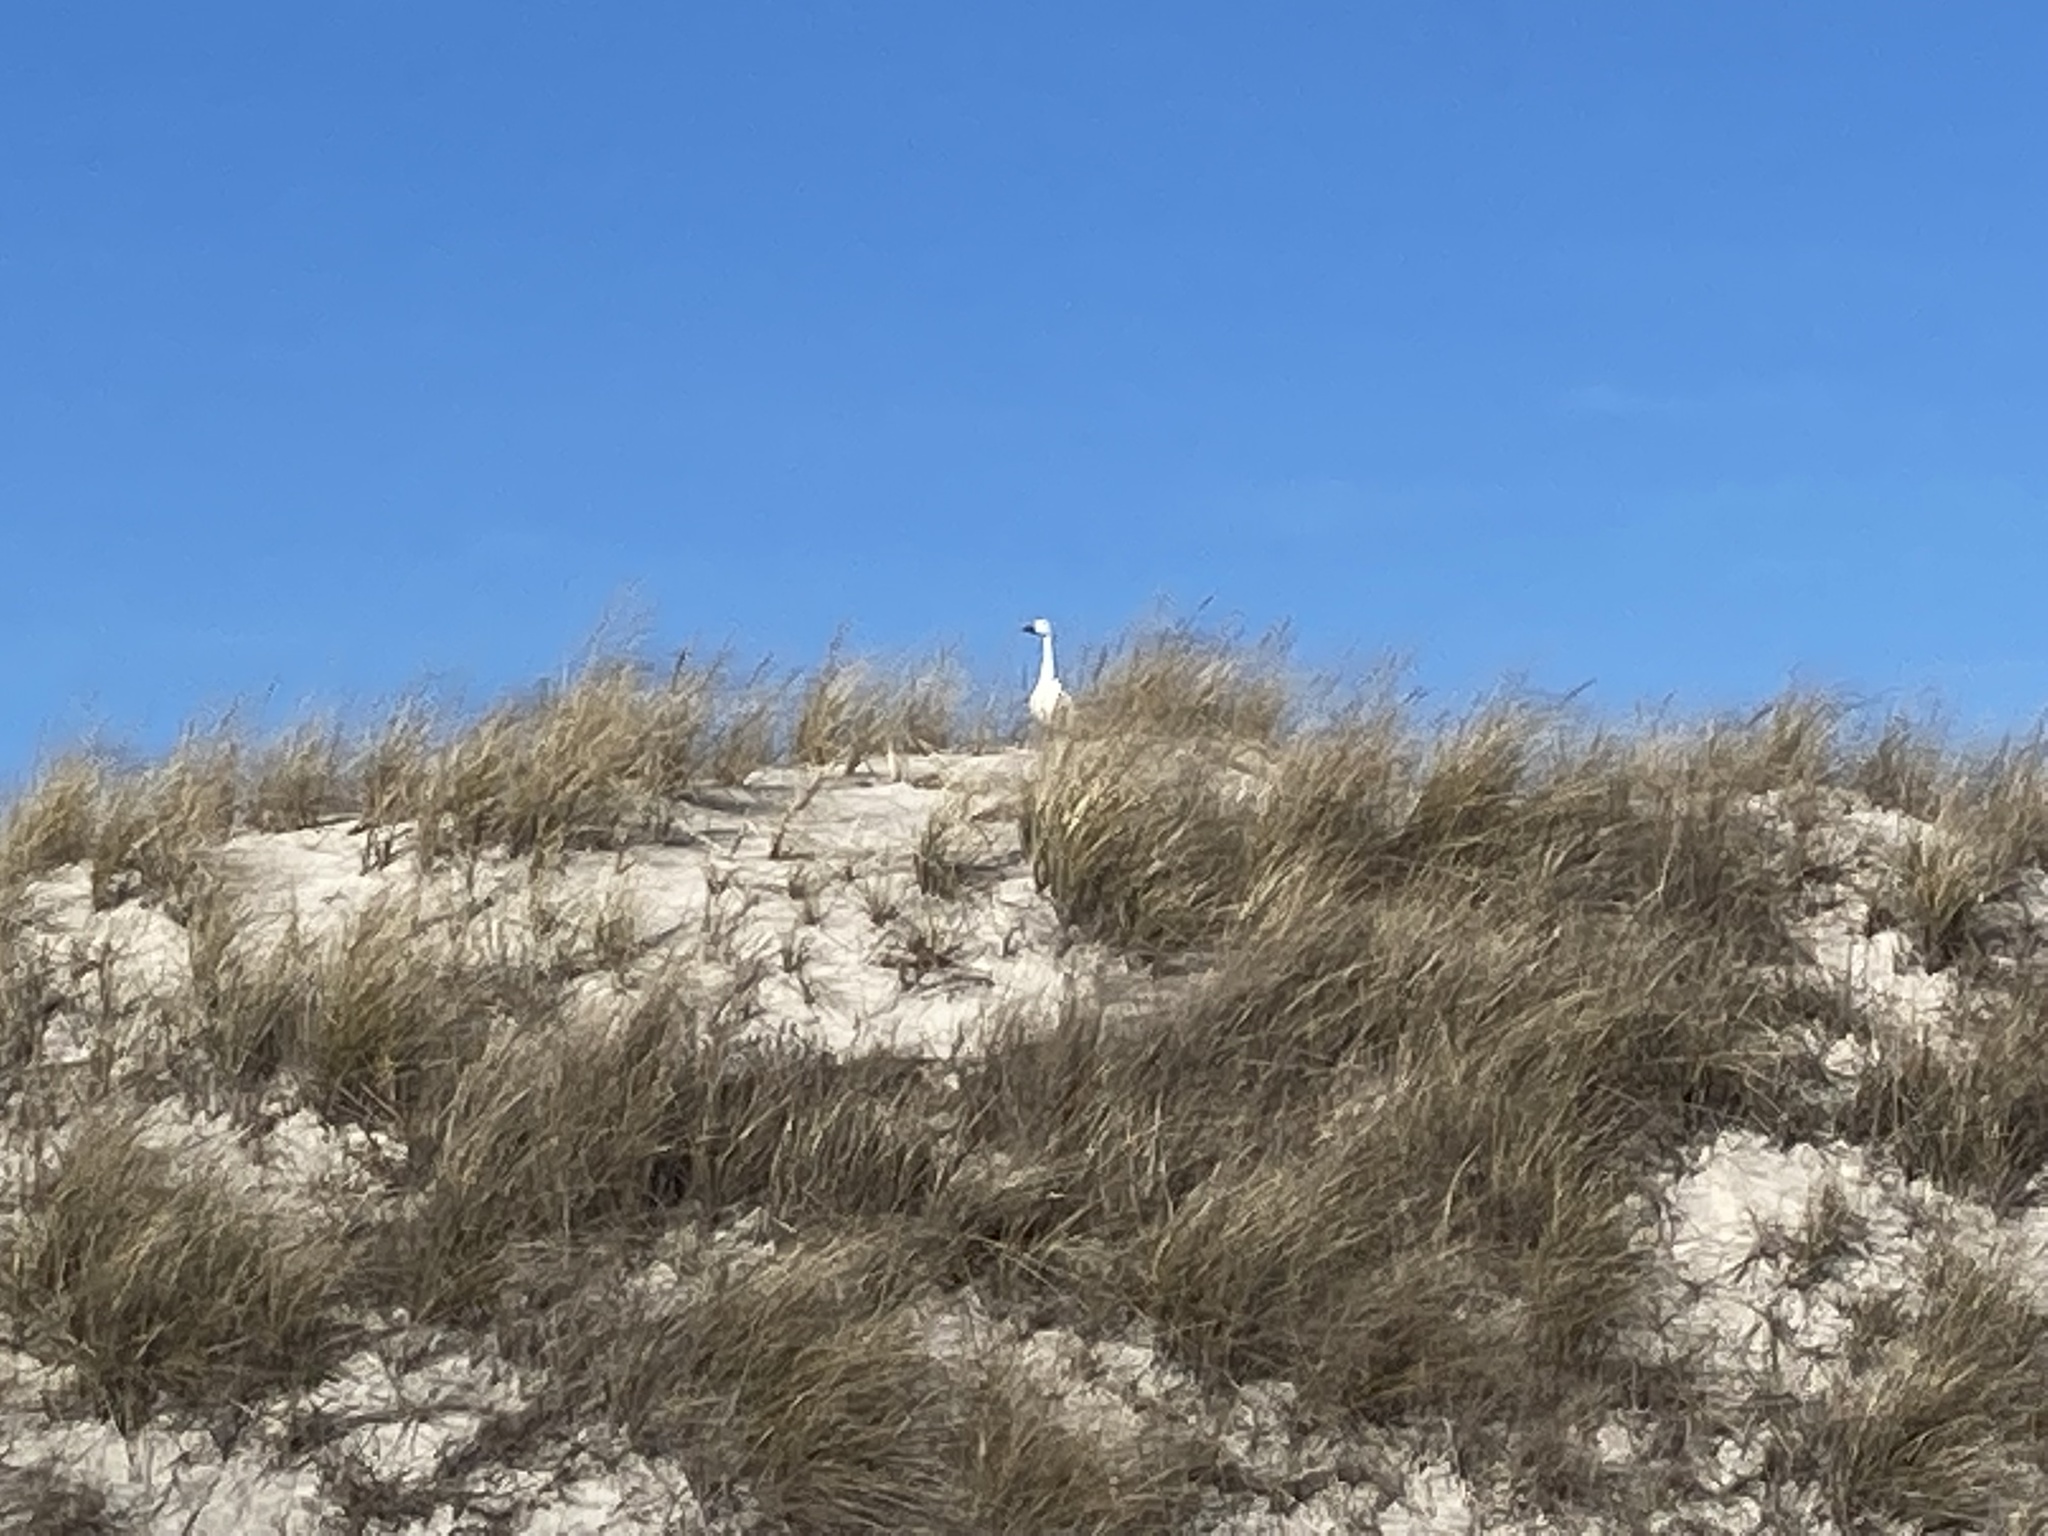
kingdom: Animalia
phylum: Chordata
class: Aves
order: Anseriformes
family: Anatidae
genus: Anser
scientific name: Anser caerulescens
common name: Snow goose
